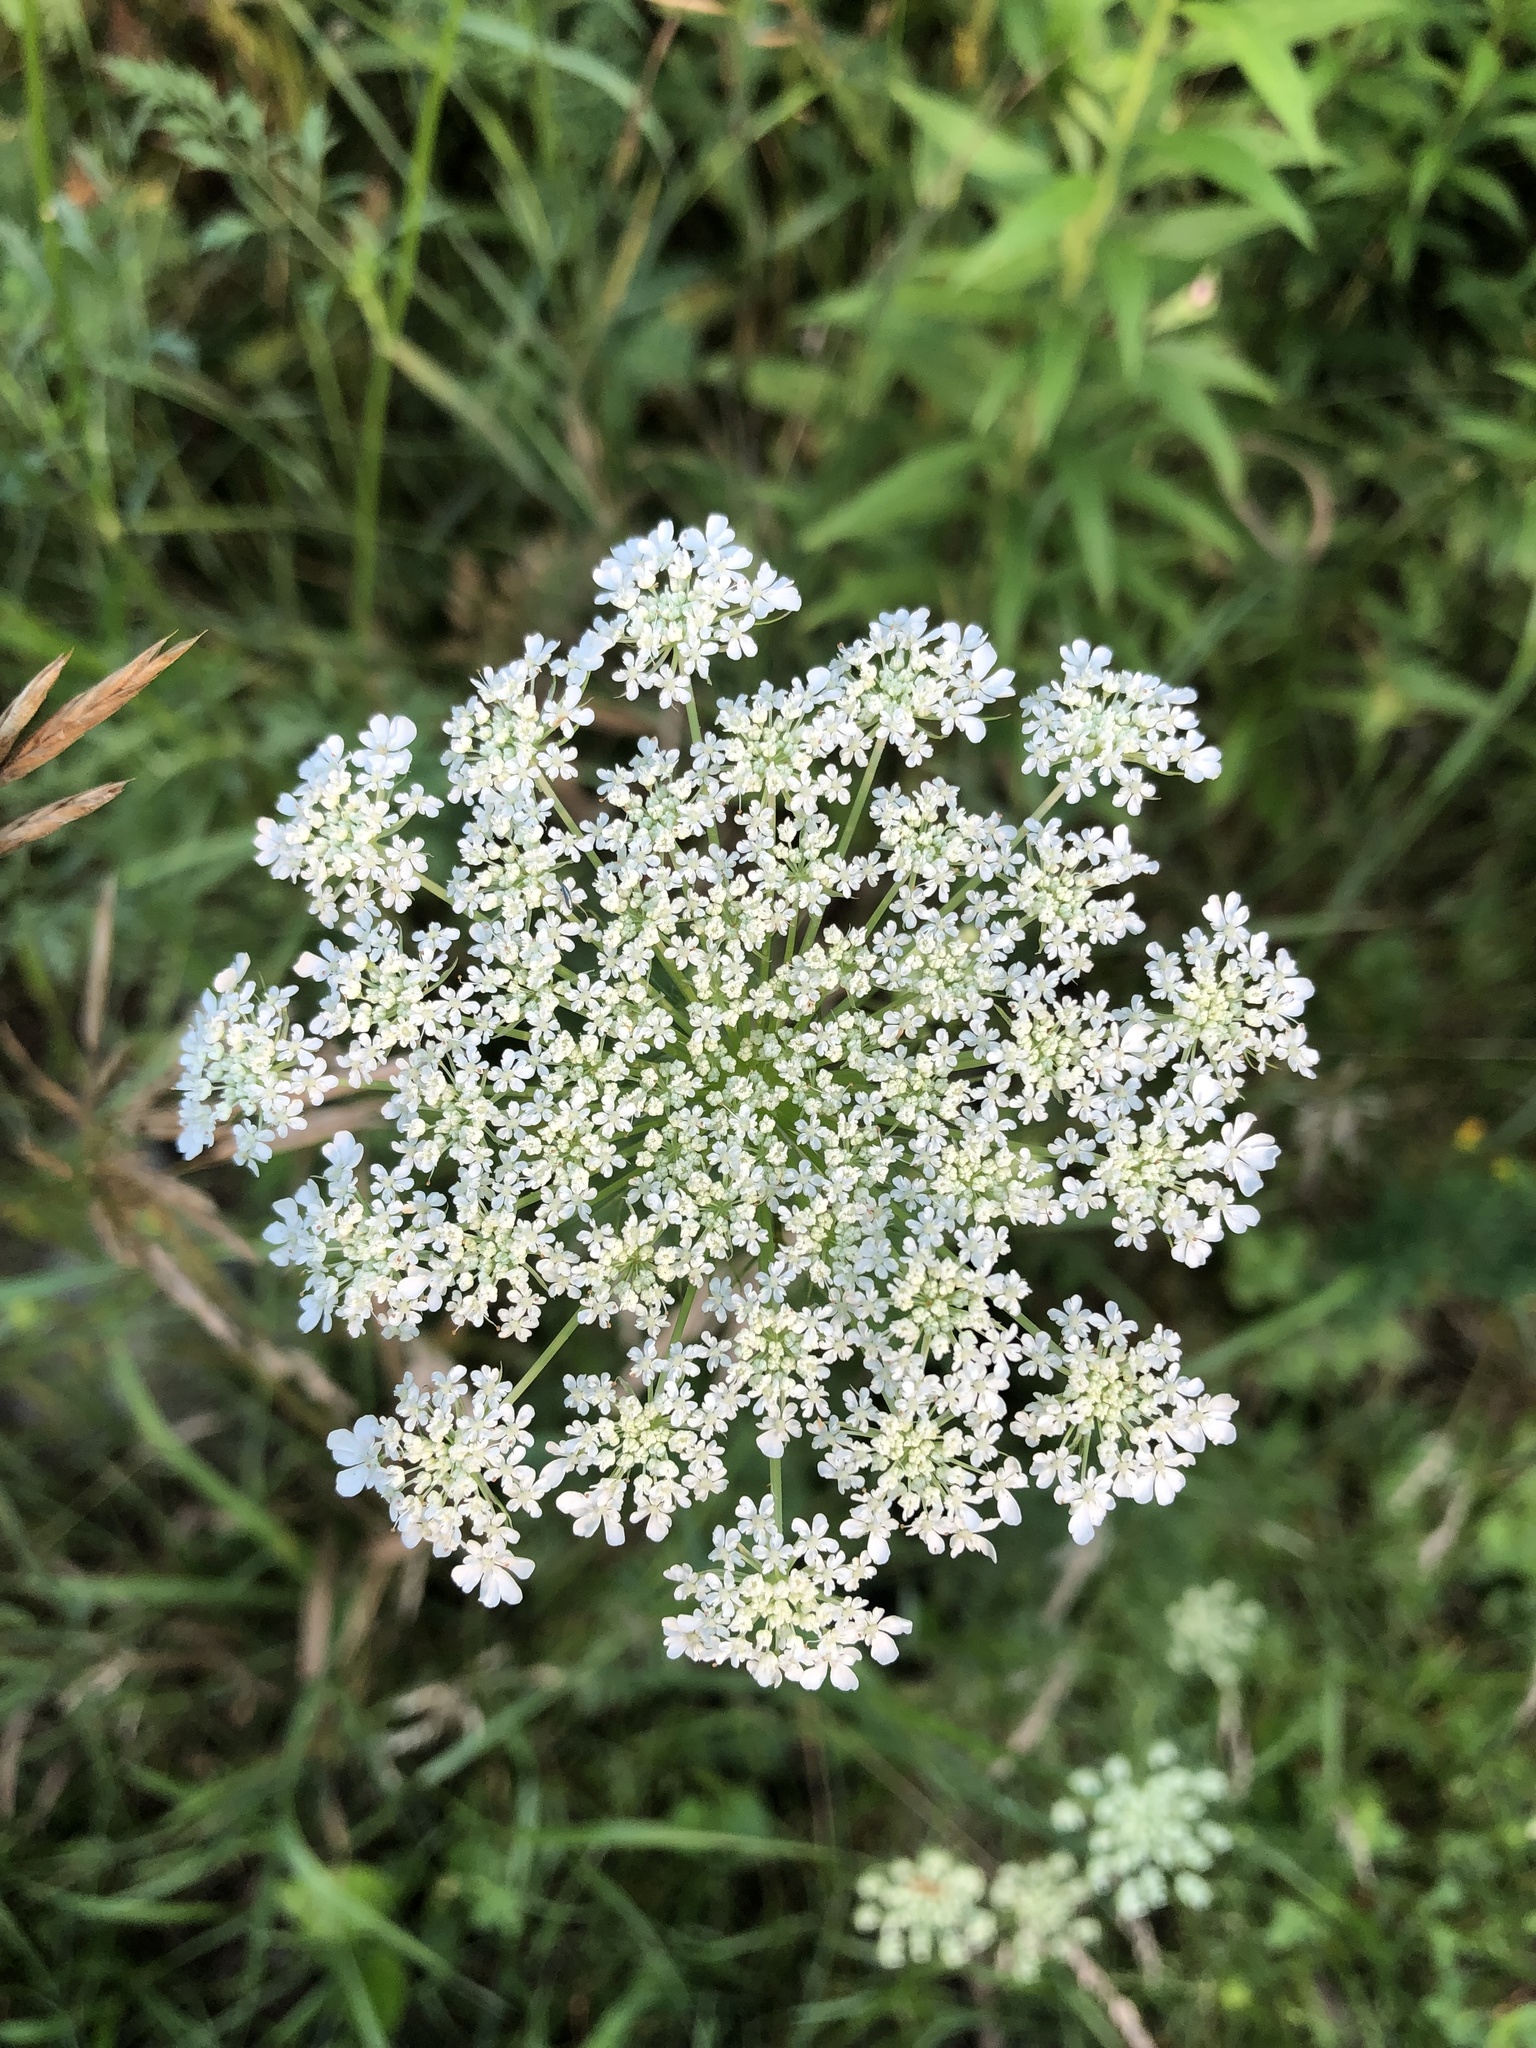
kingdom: Plantae
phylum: Tracheophyta
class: Magnoliopsida
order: Apiales
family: Apiaceae
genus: Daucus
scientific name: Daucus carota
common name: Wild carrot
